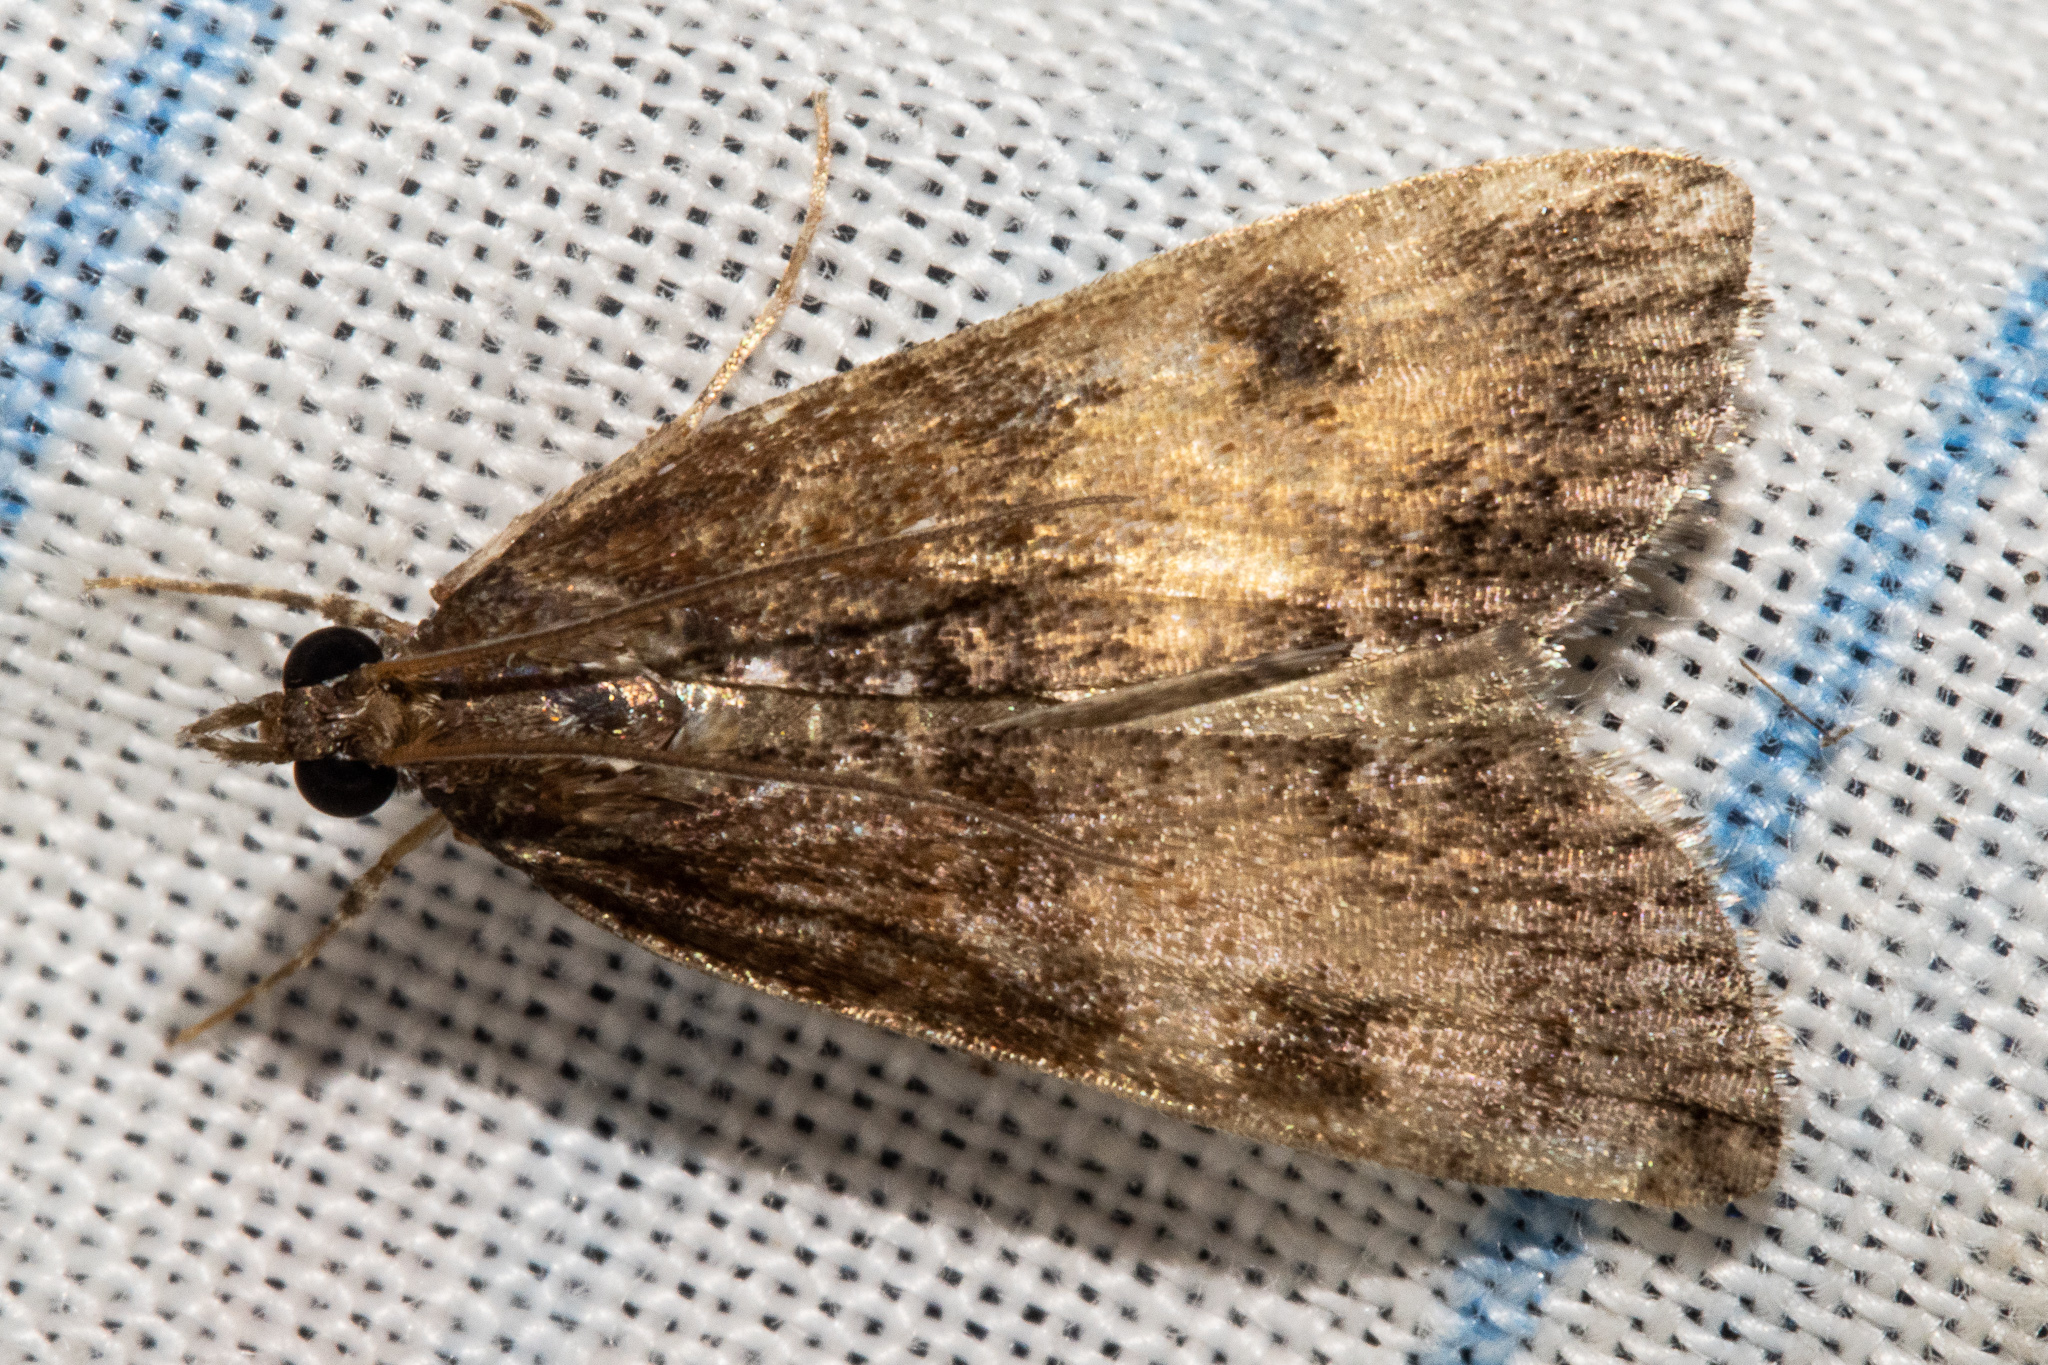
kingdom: Animalia
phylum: Arthropoda
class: Insecta
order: Lepidoptera
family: Crambidae
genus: Eudonia
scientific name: Eudonia asterisca
